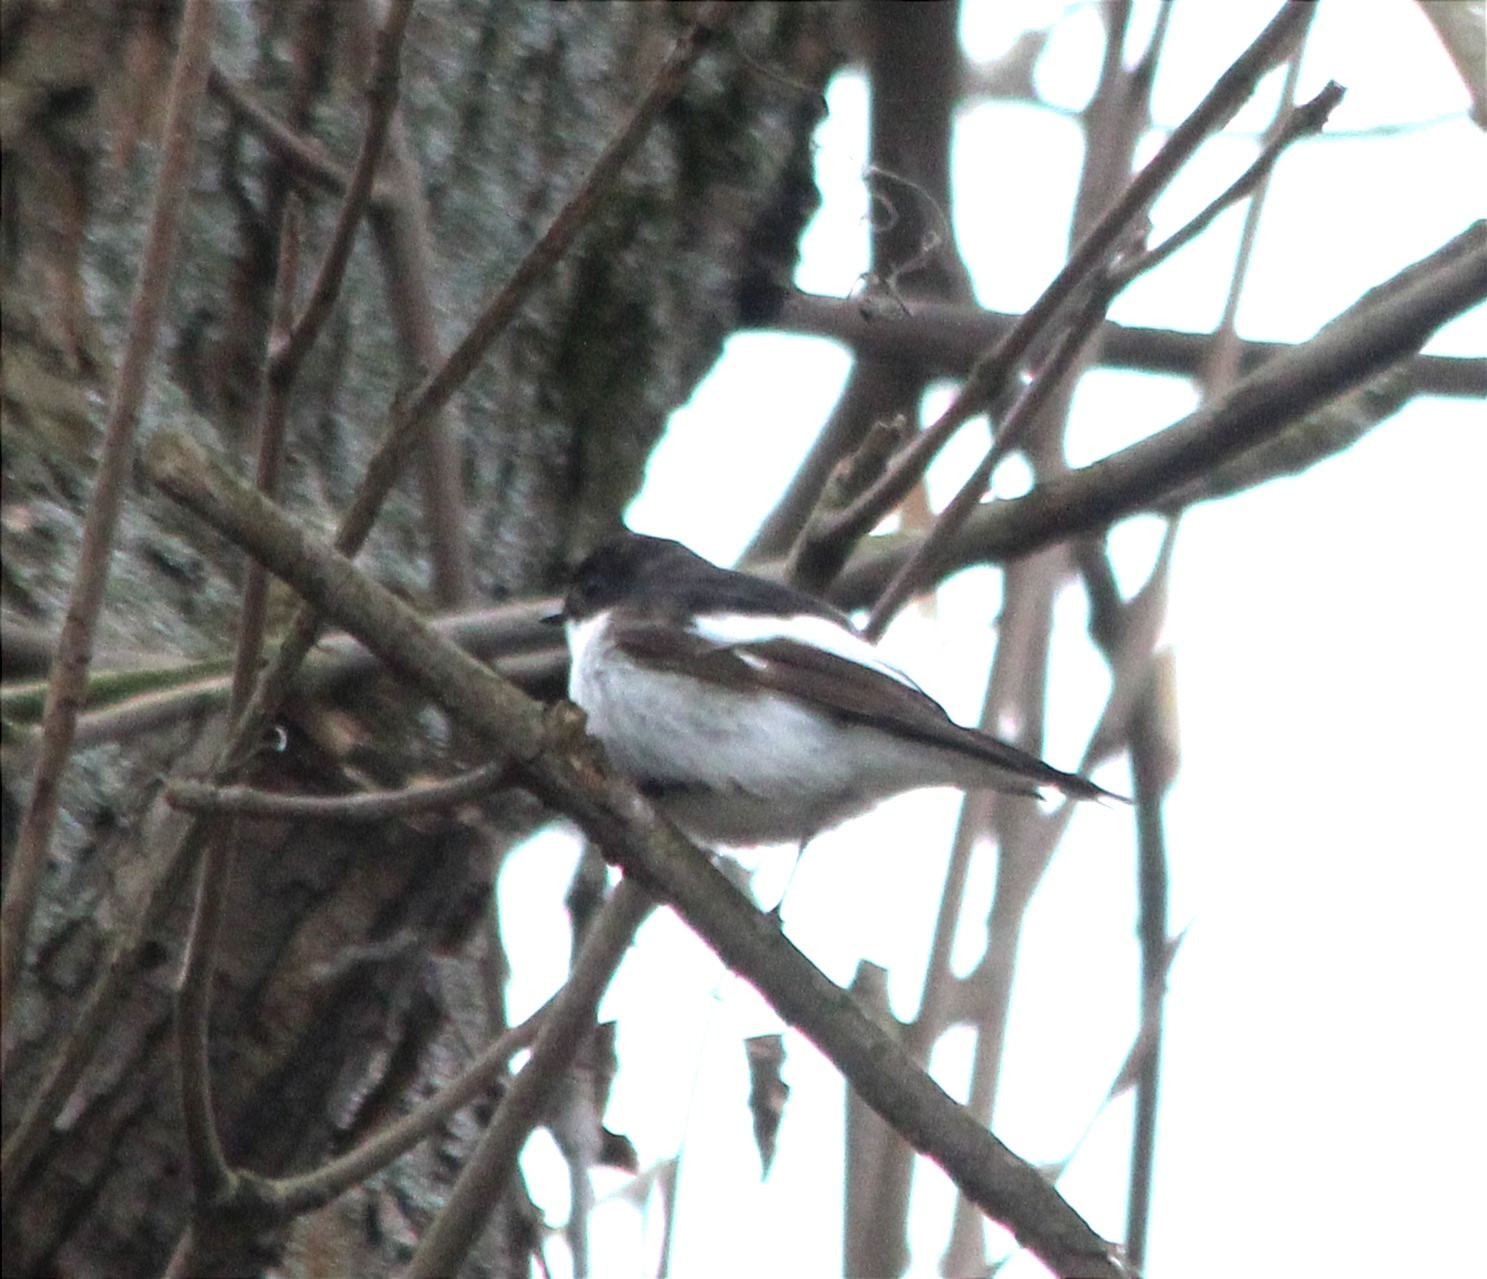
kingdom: Animalia
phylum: Chordata
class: Aves
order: Passeriformes
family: Muscicapidae
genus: Ficedula
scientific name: Ficedula hypoleuca
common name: European pied flycatcher
